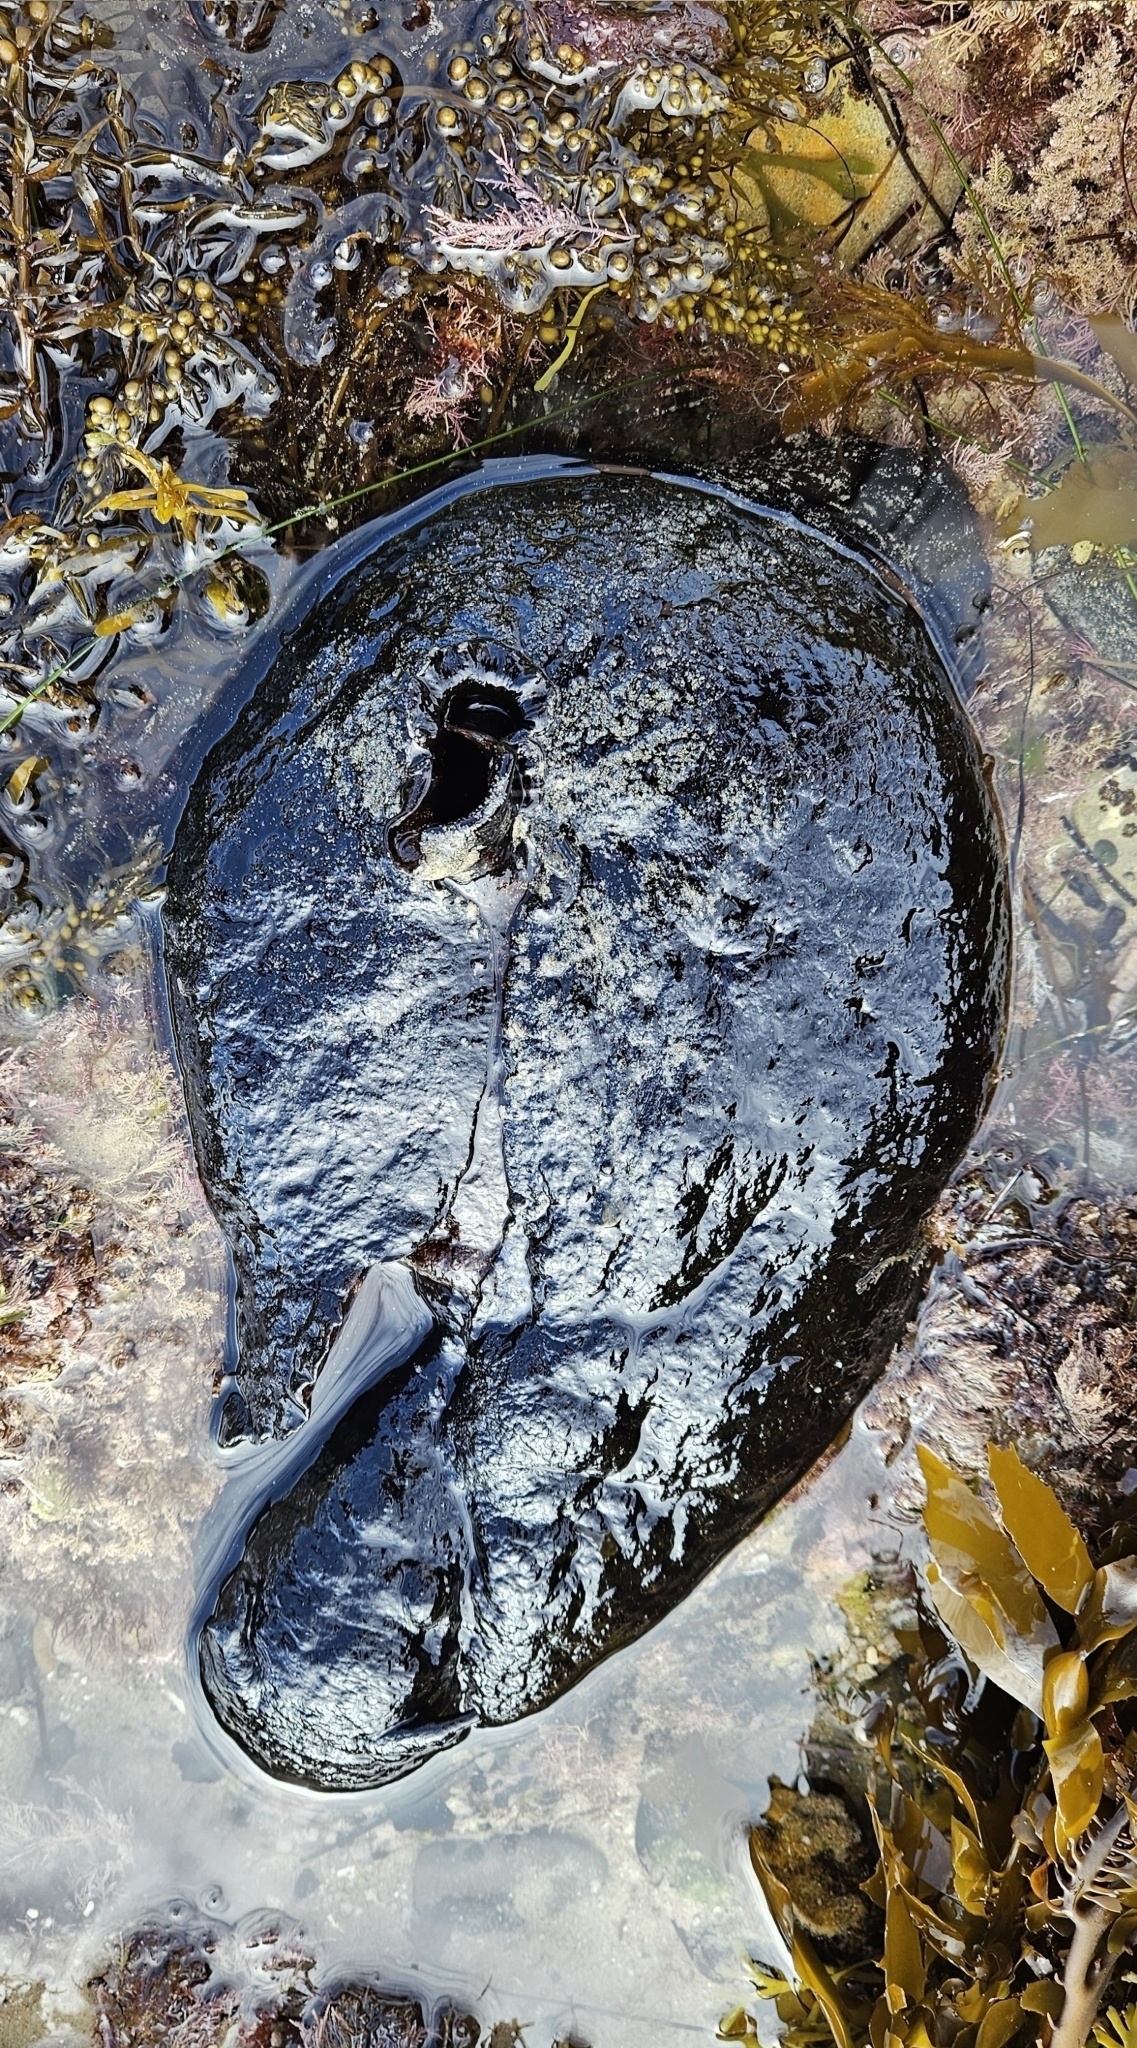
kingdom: Animalia
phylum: Mollusca
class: Gastropoda
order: Aplysiida
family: Aplysiidae
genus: Aplysia
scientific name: Aplysia vaccaria
